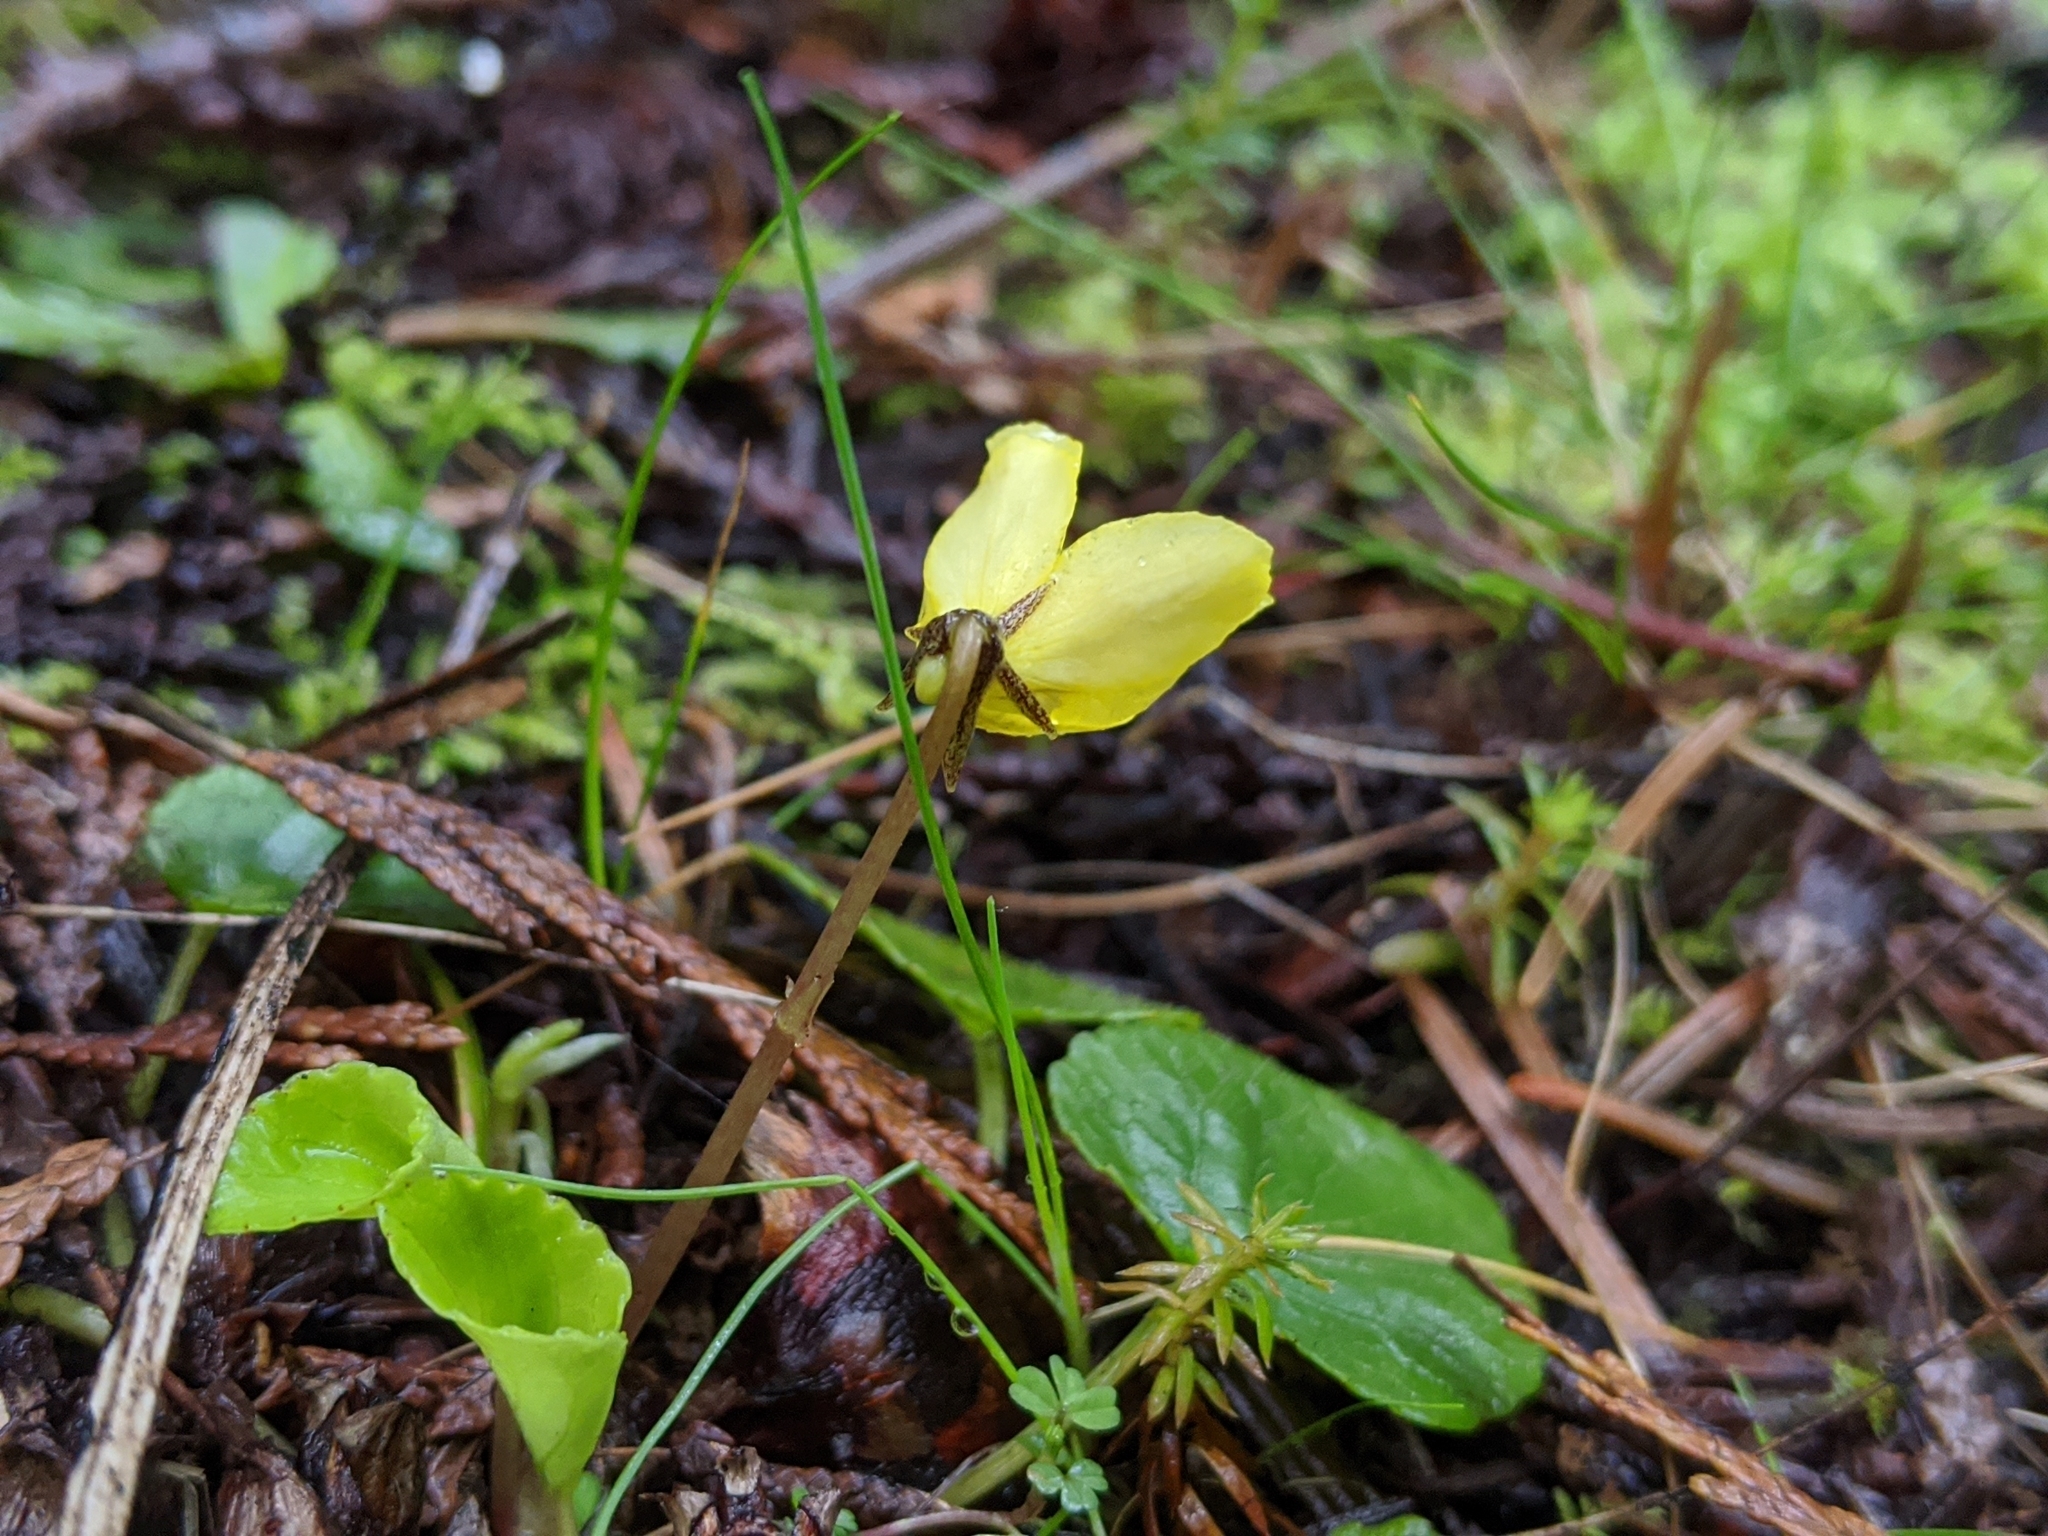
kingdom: Plantae
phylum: Tracheophyta
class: Magnoliopsida
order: Malpighiales
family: Violaceae
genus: Viola
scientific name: Viola sempervirens
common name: Evergreen violet
